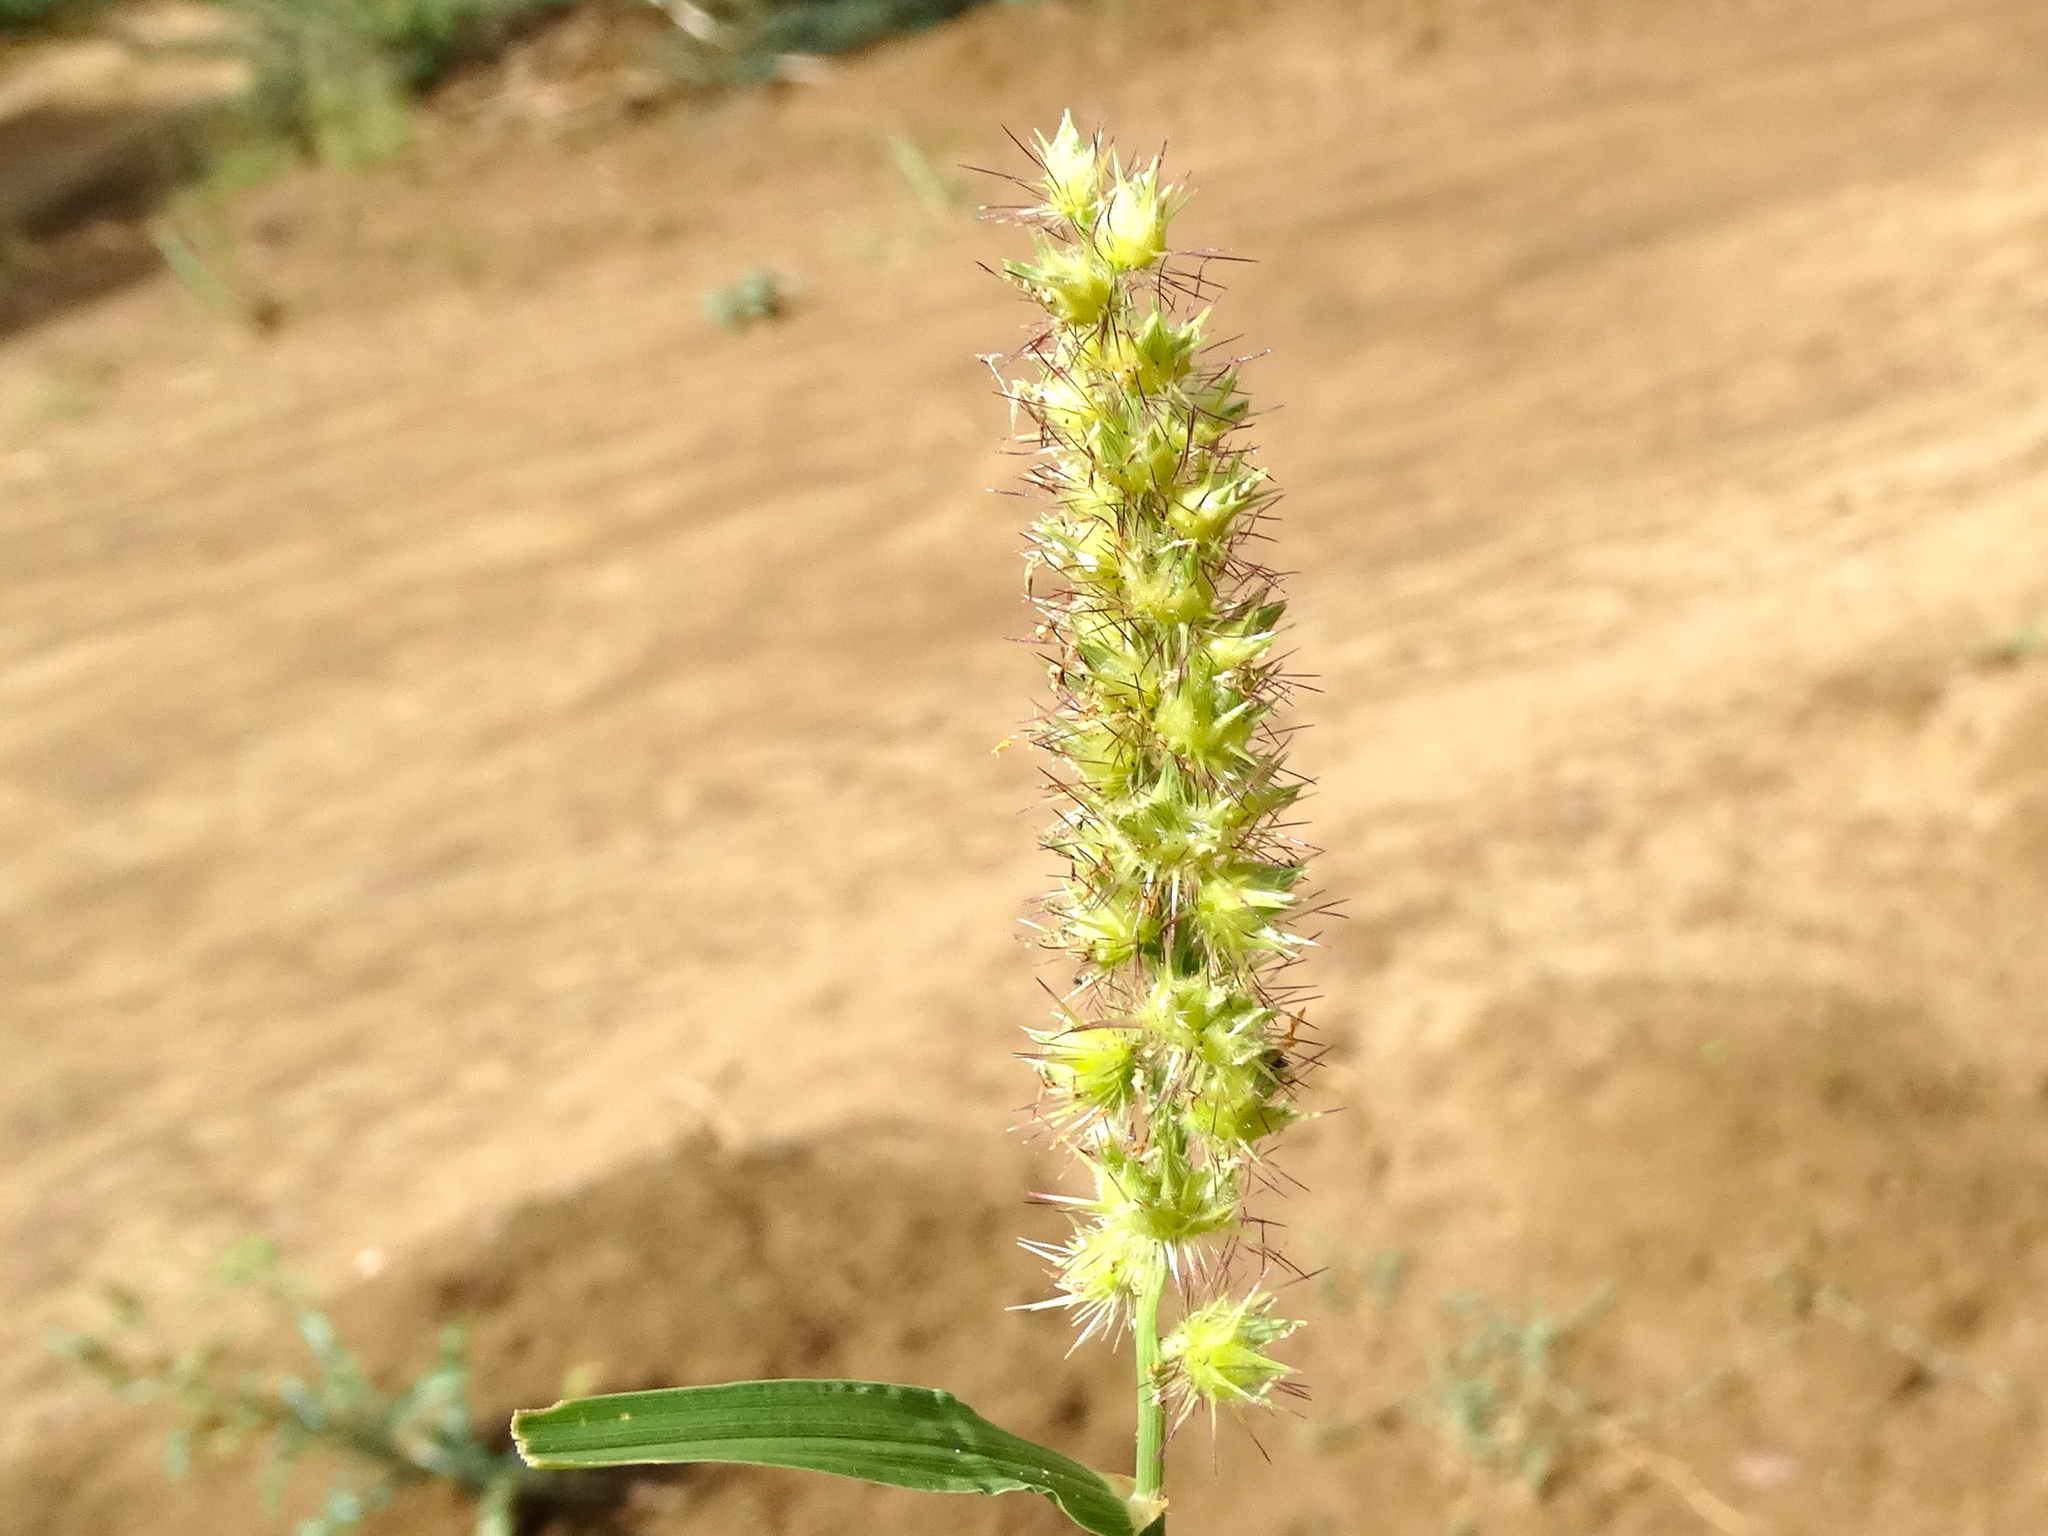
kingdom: Plantae
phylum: Tracheophyta
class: Liliopsida
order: Poales
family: Poaceae
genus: Cenchrus
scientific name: Cenchrus echinatus
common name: Southern sandbur
